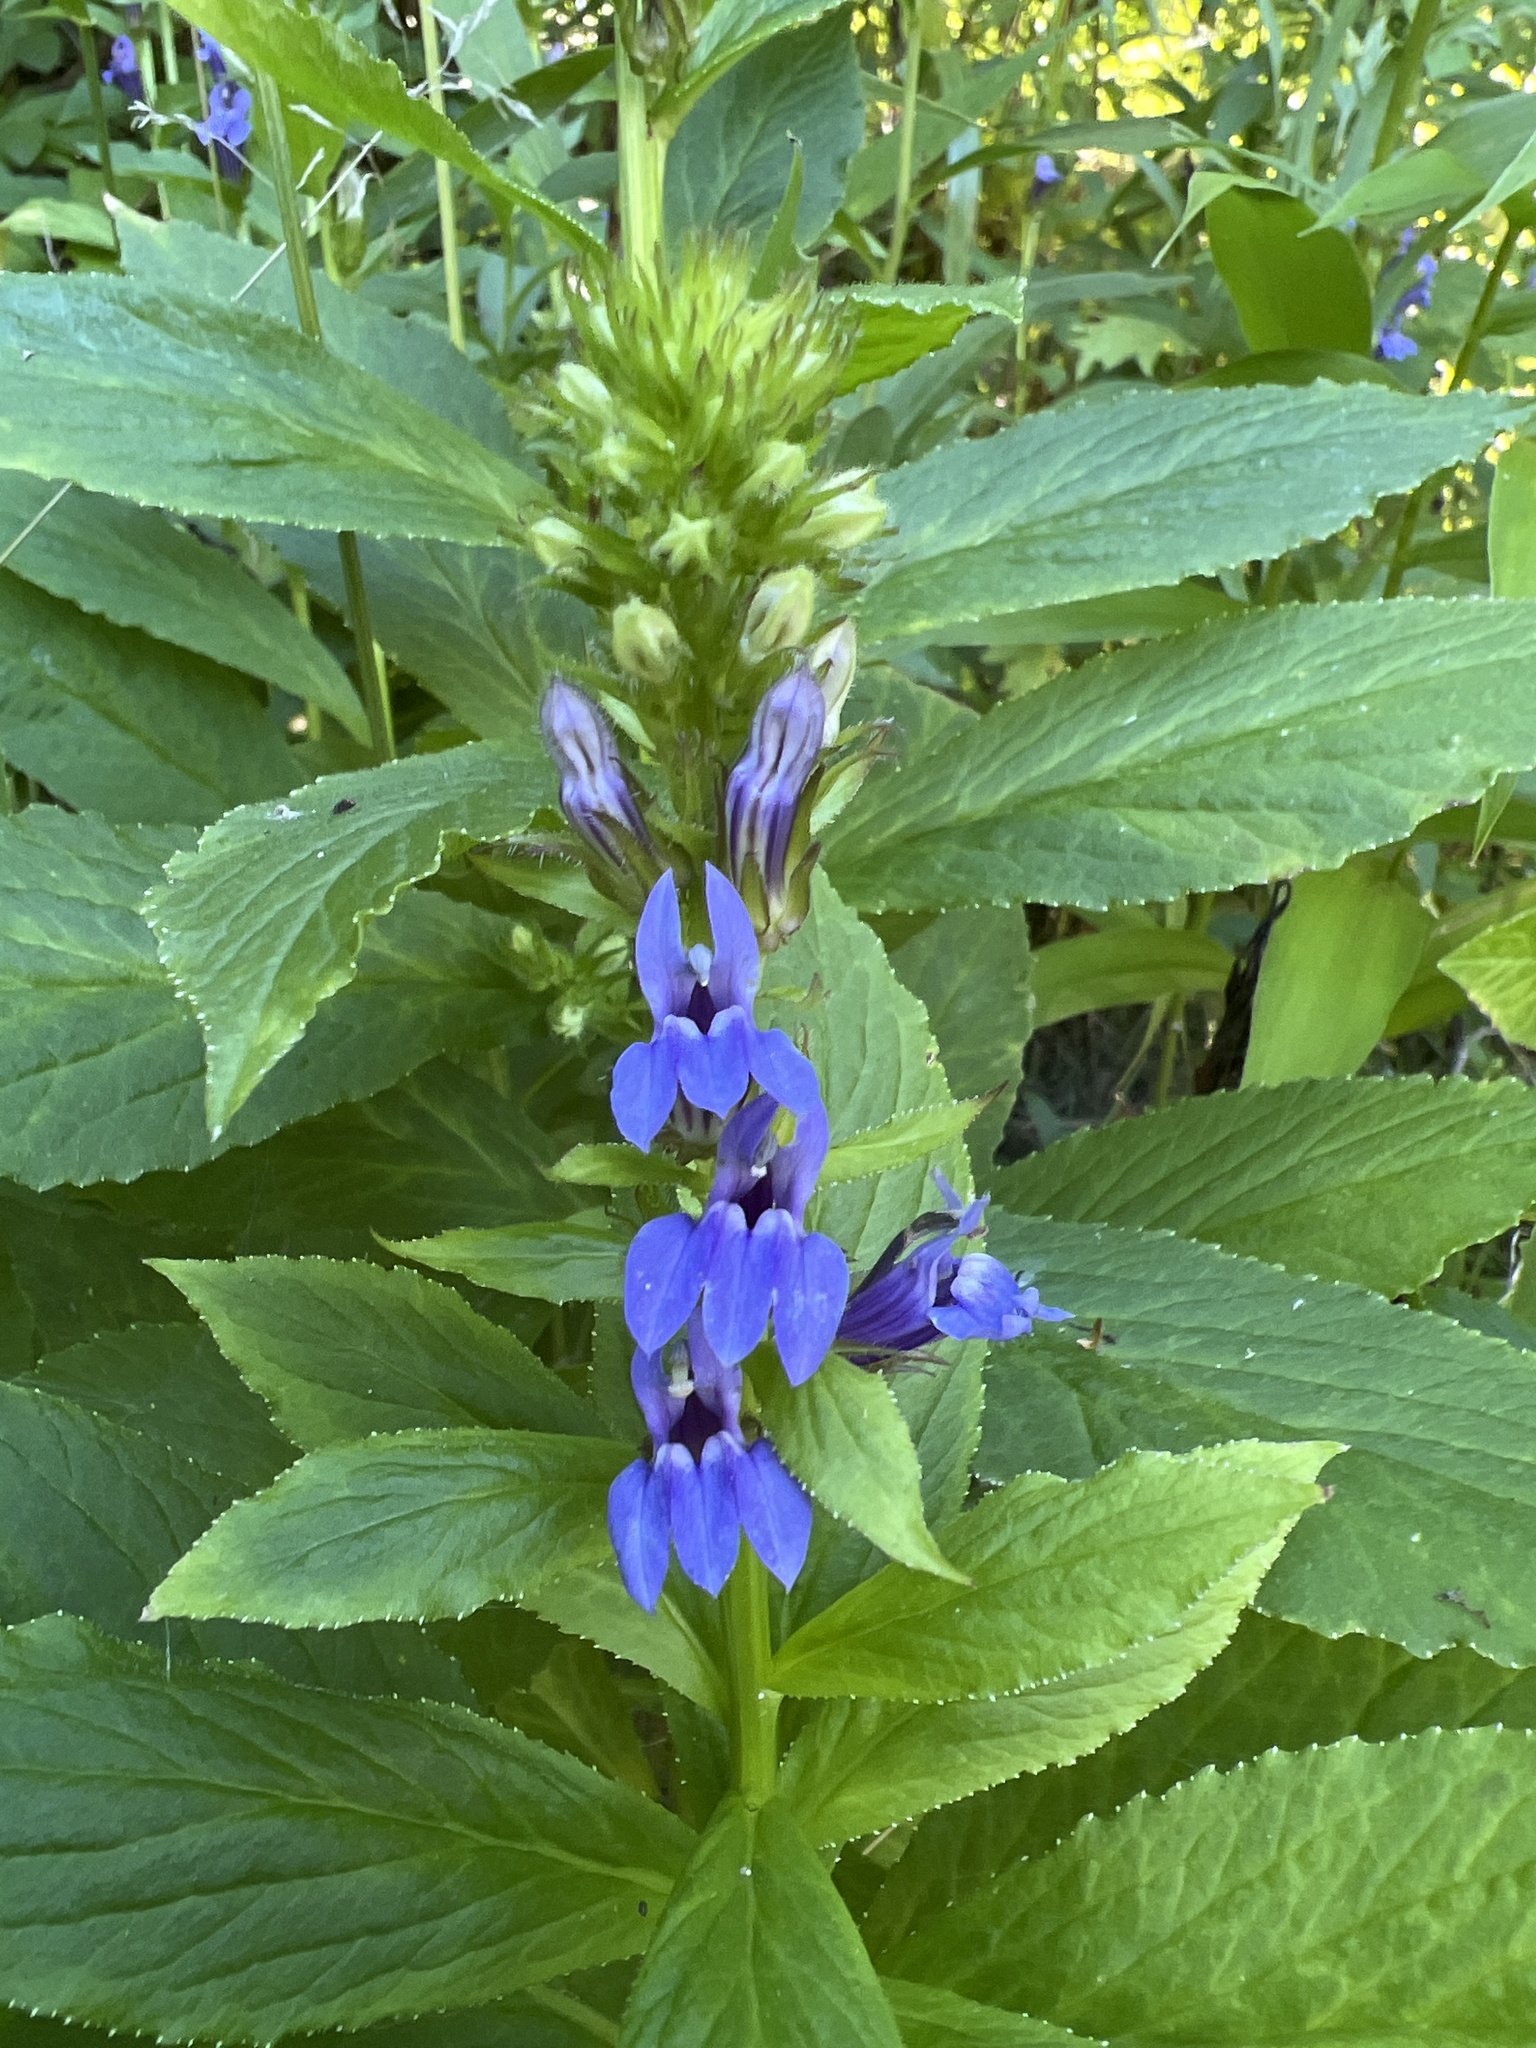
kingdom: Plantae
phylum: Tracheophyta
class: Magnoliopsida
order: Asterales
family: Campanulaceae
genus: Lobelia
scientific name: Lobelia siphilitica
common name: Great lobelia
